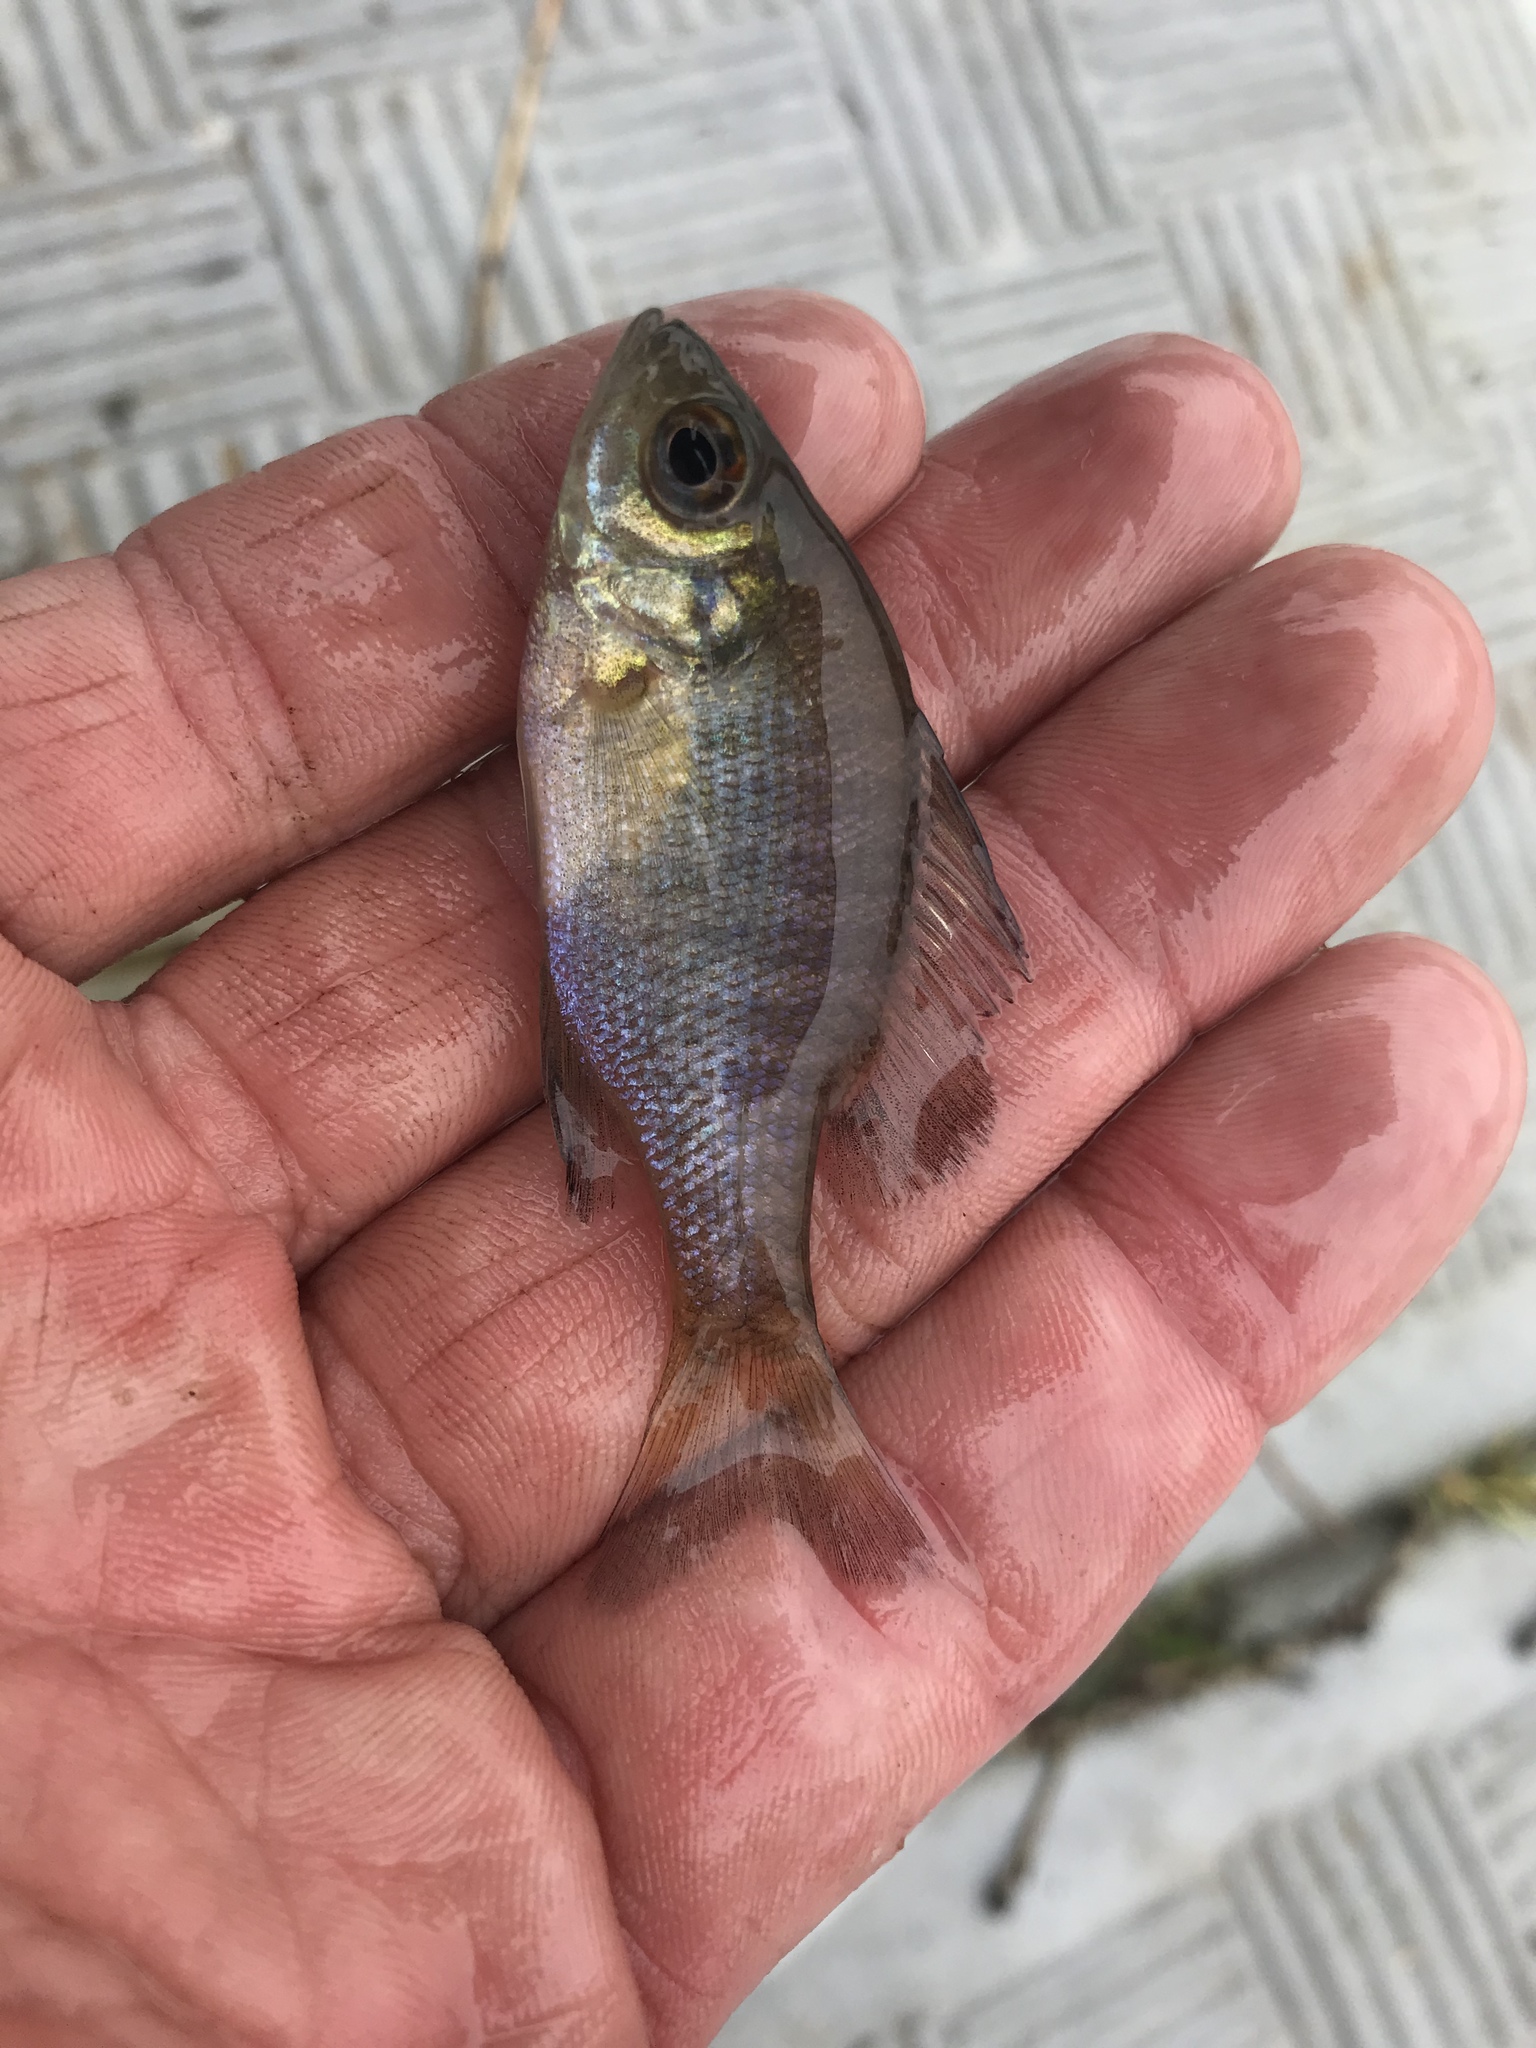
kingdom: Animalia
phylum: Chordata
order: Perciformes
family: Centrarchidae
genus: Lepomis
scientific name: Lepomis macrochirus
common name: Bluegill
